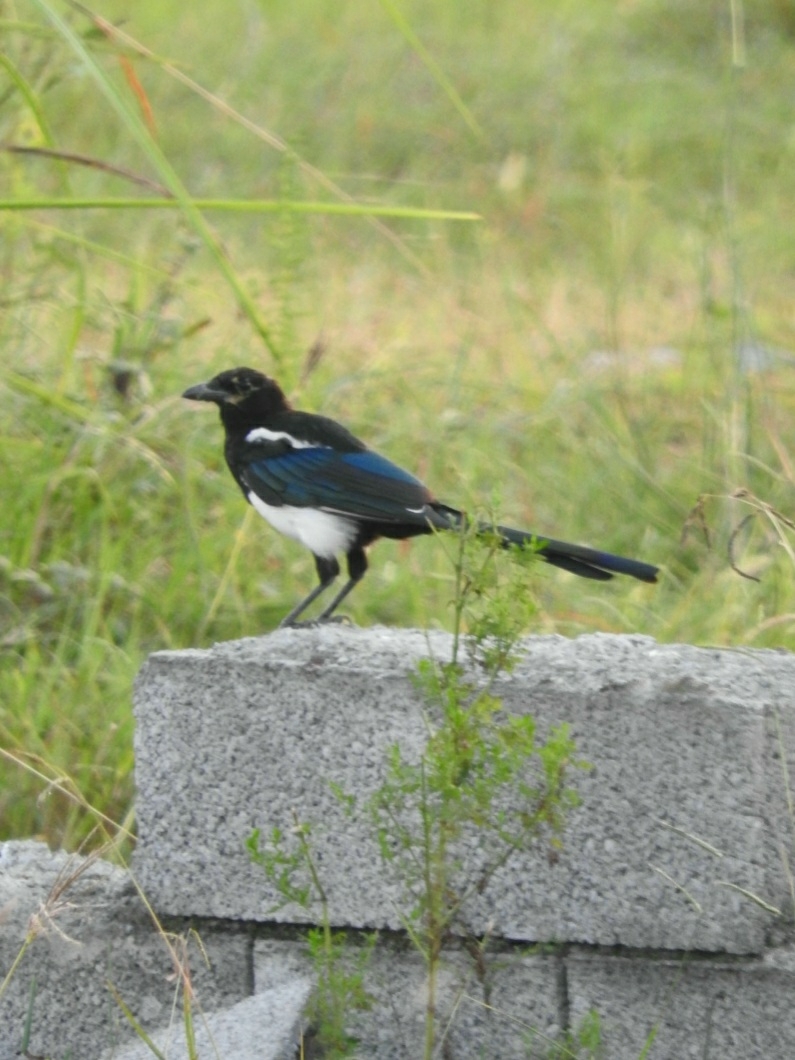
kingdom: Animalia
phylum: Chordata
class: Aves
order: Passeriformes
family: Corvidae
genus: Pica
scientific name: Pica pica
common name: Eurasian magpie
